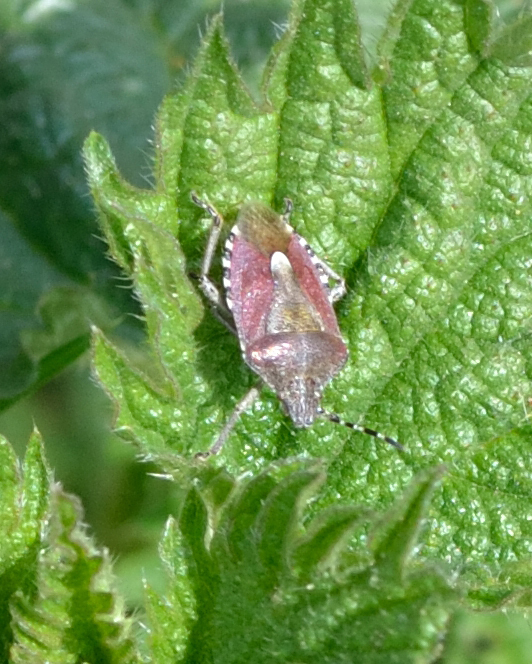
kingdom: Animalia
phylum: Arthropoda
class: Insecta
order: Hemiptera
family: Pentatomidae
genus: Dolycoris
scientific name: Dolycoris baccarum
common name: Sloe bug
